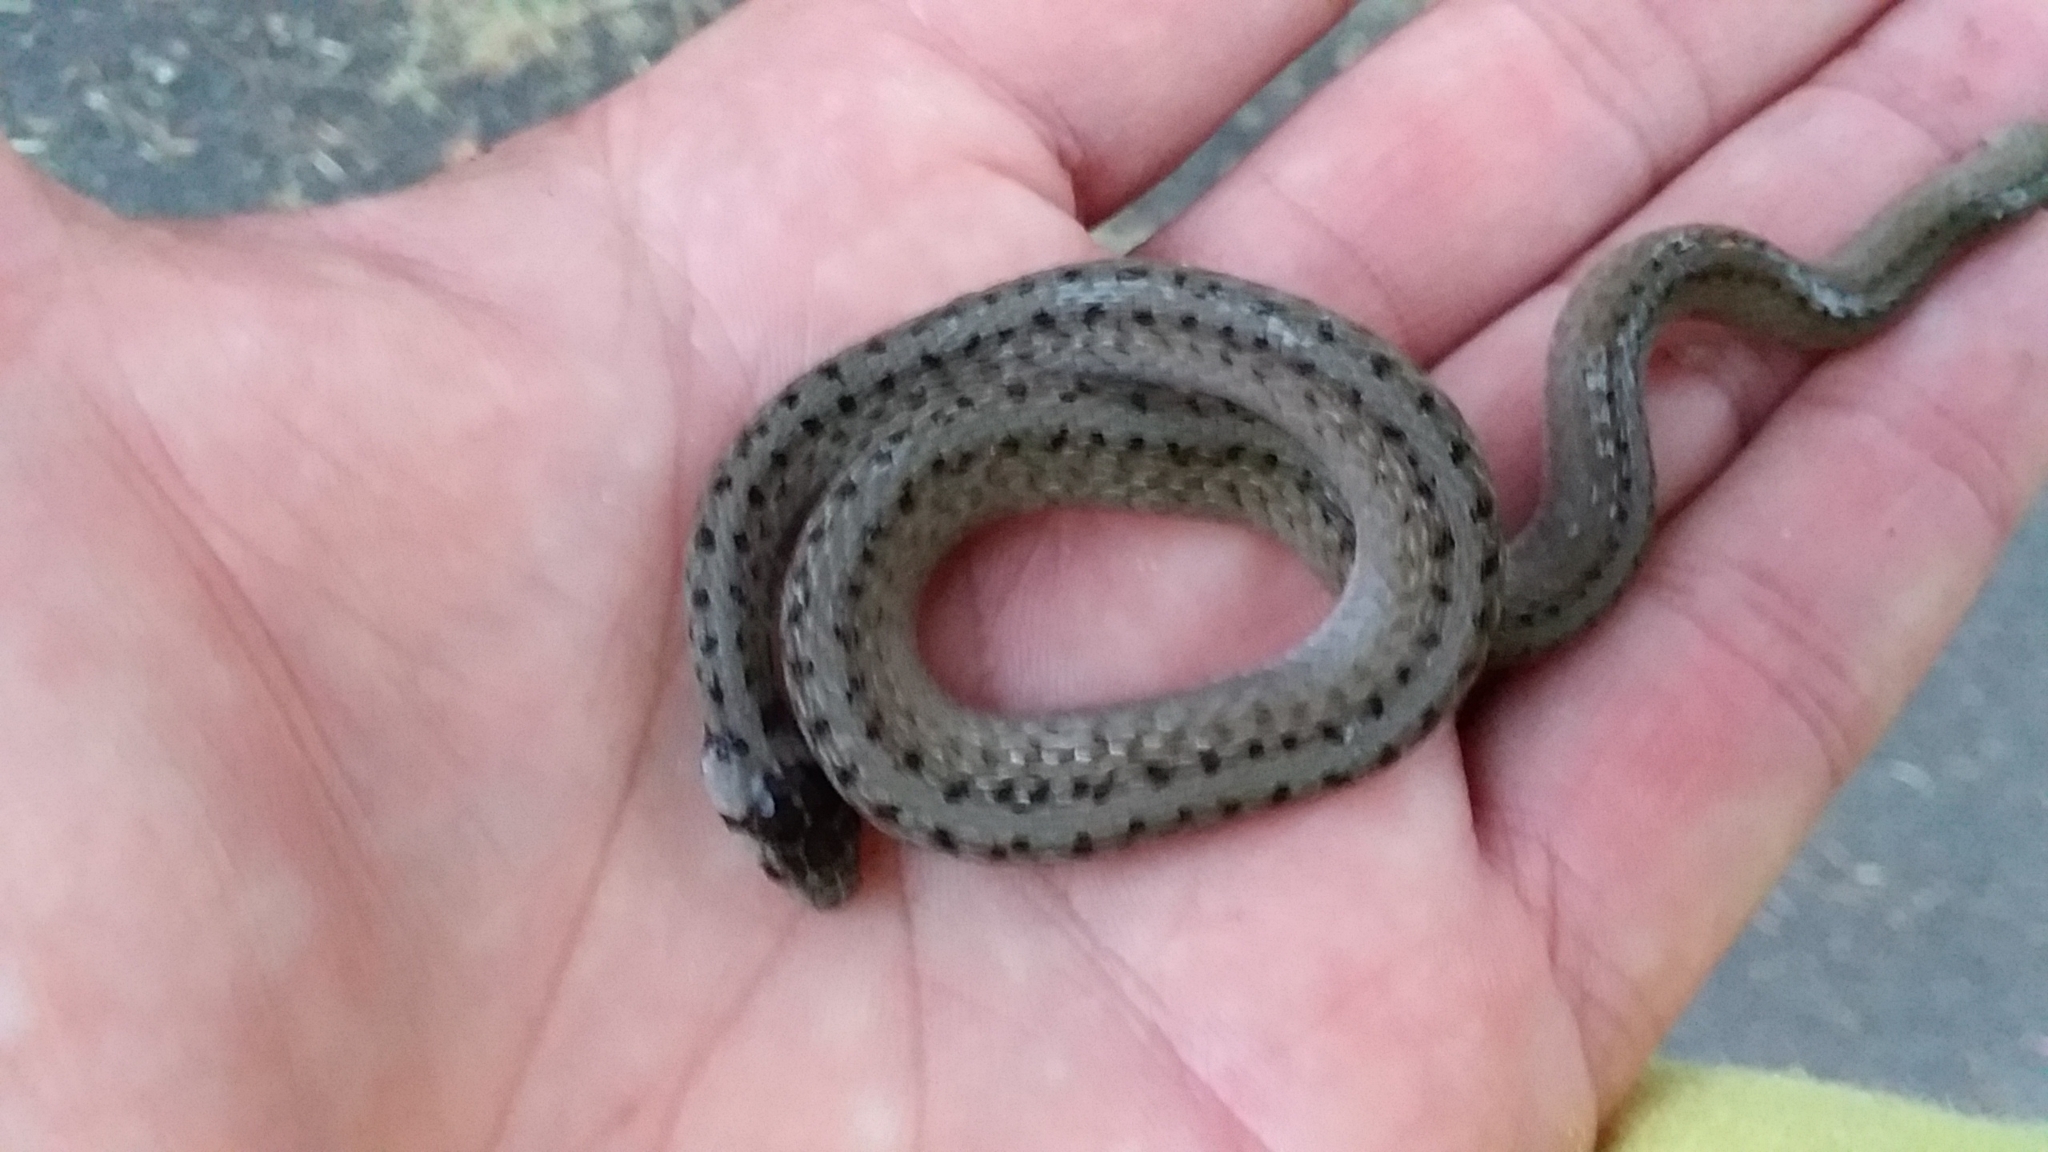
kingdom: Animalia
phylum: Chordata
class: Squamata
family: Colubridae
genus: Storeria
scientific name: Storeria dekayi
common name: (dekay’s) brown snake
